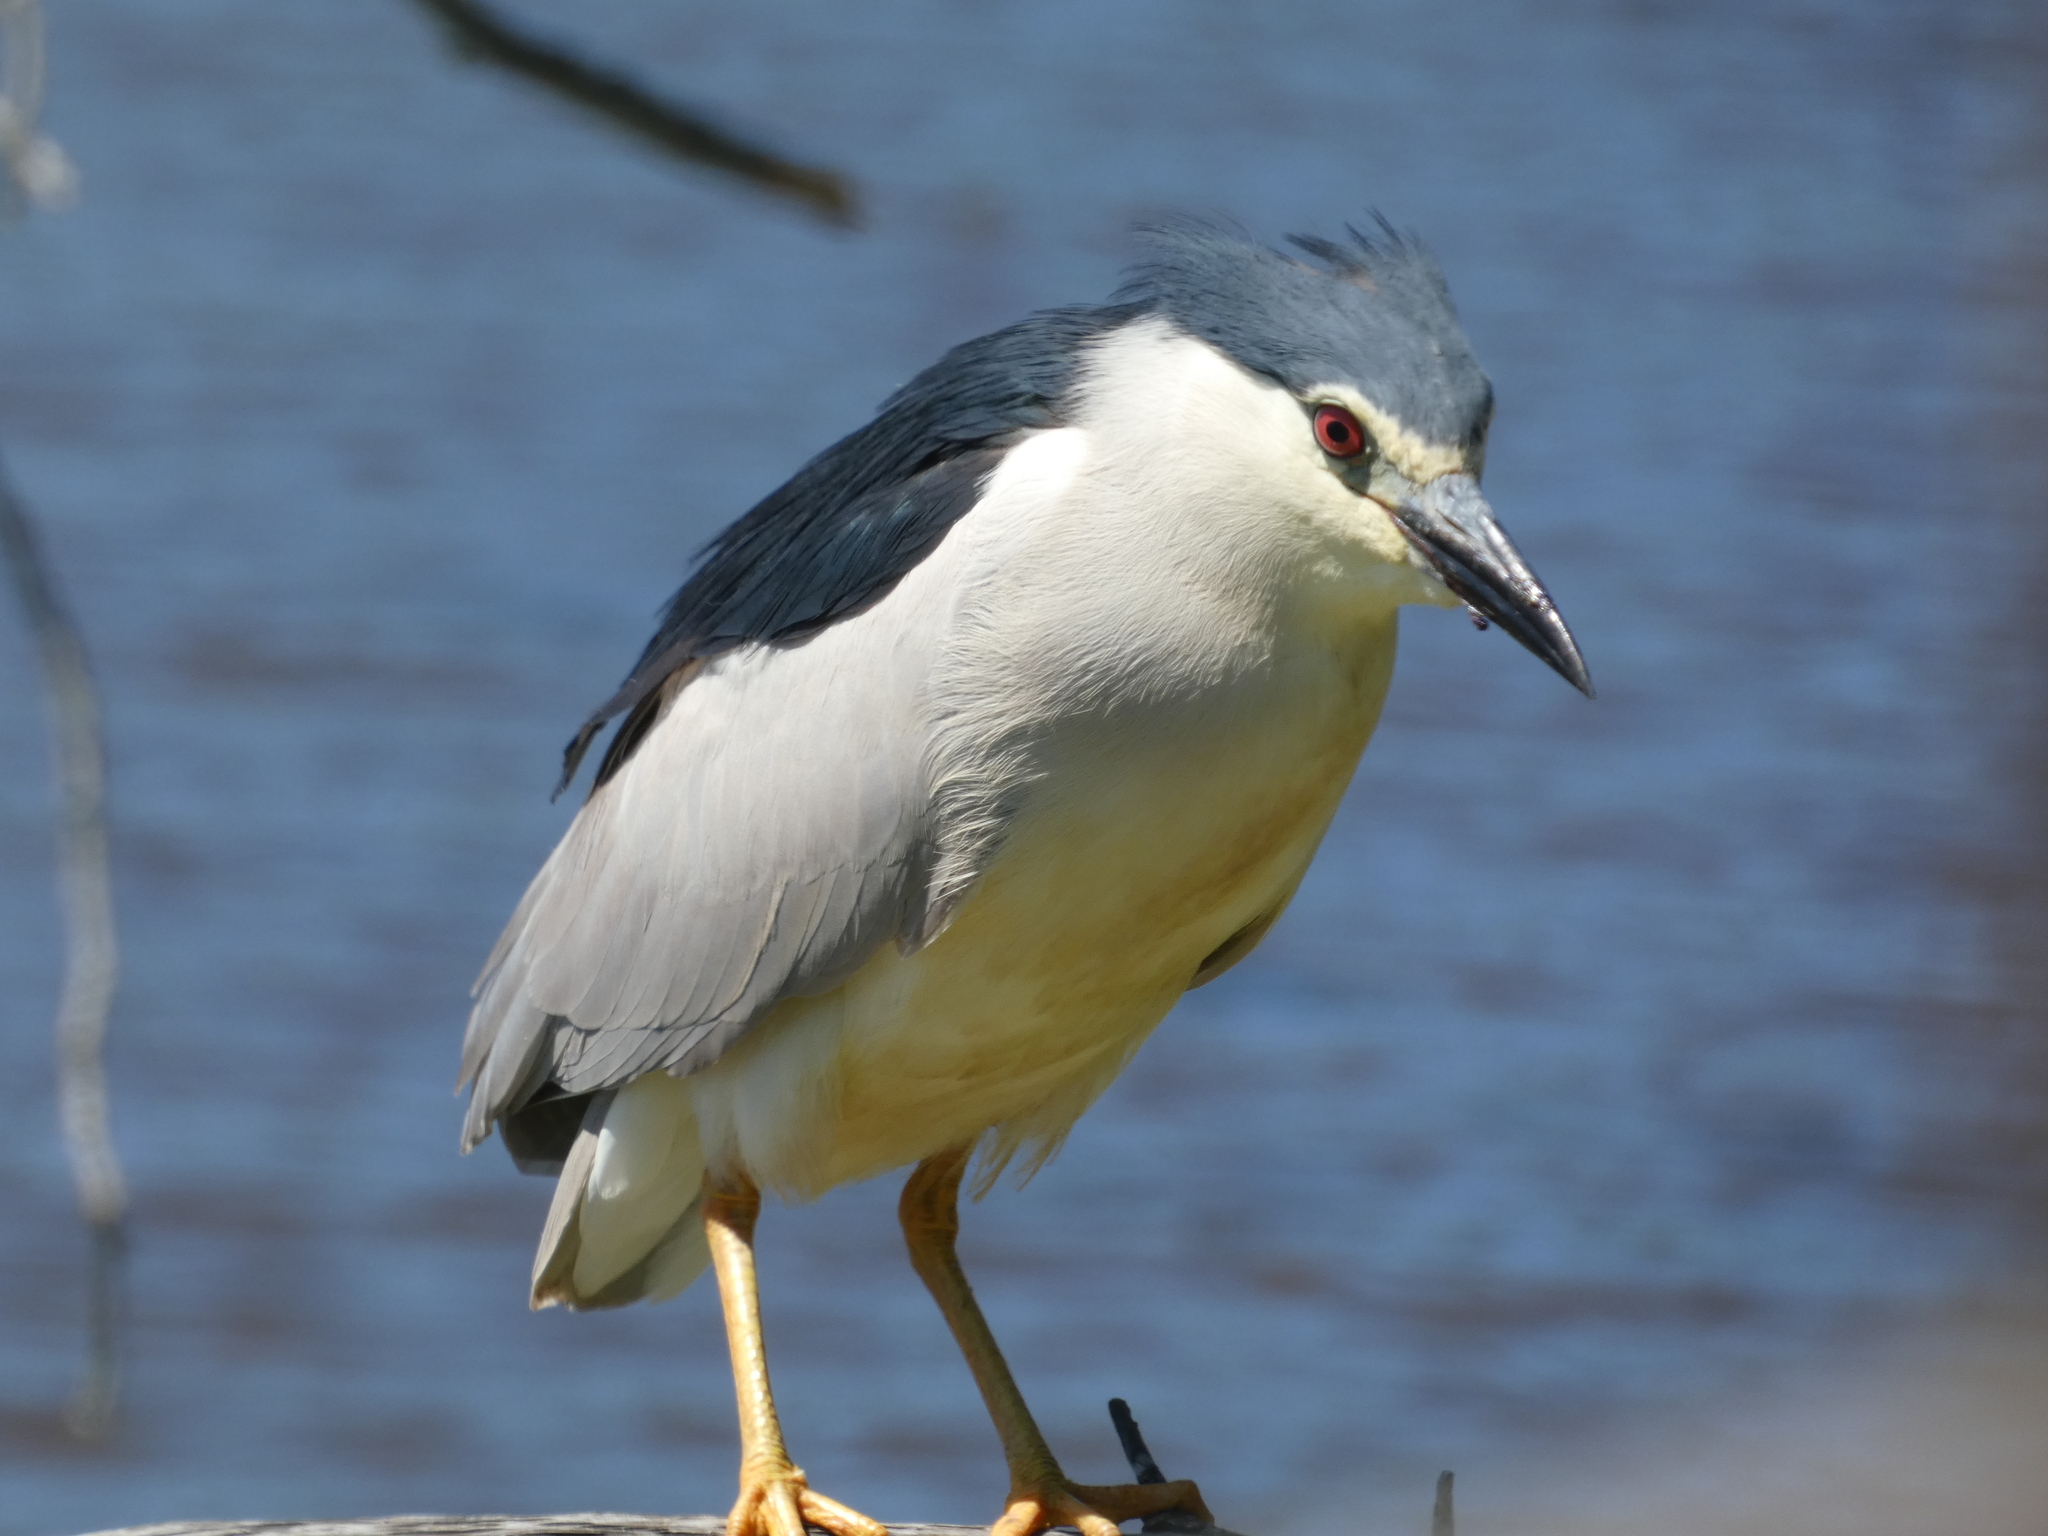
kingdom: Animalia
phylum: Chordata
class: Aves
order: Pelecaniformes
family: Ardeidae
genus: Nycticorax
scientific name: Nycticorax nycticorax
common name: Black-crowned night heron
